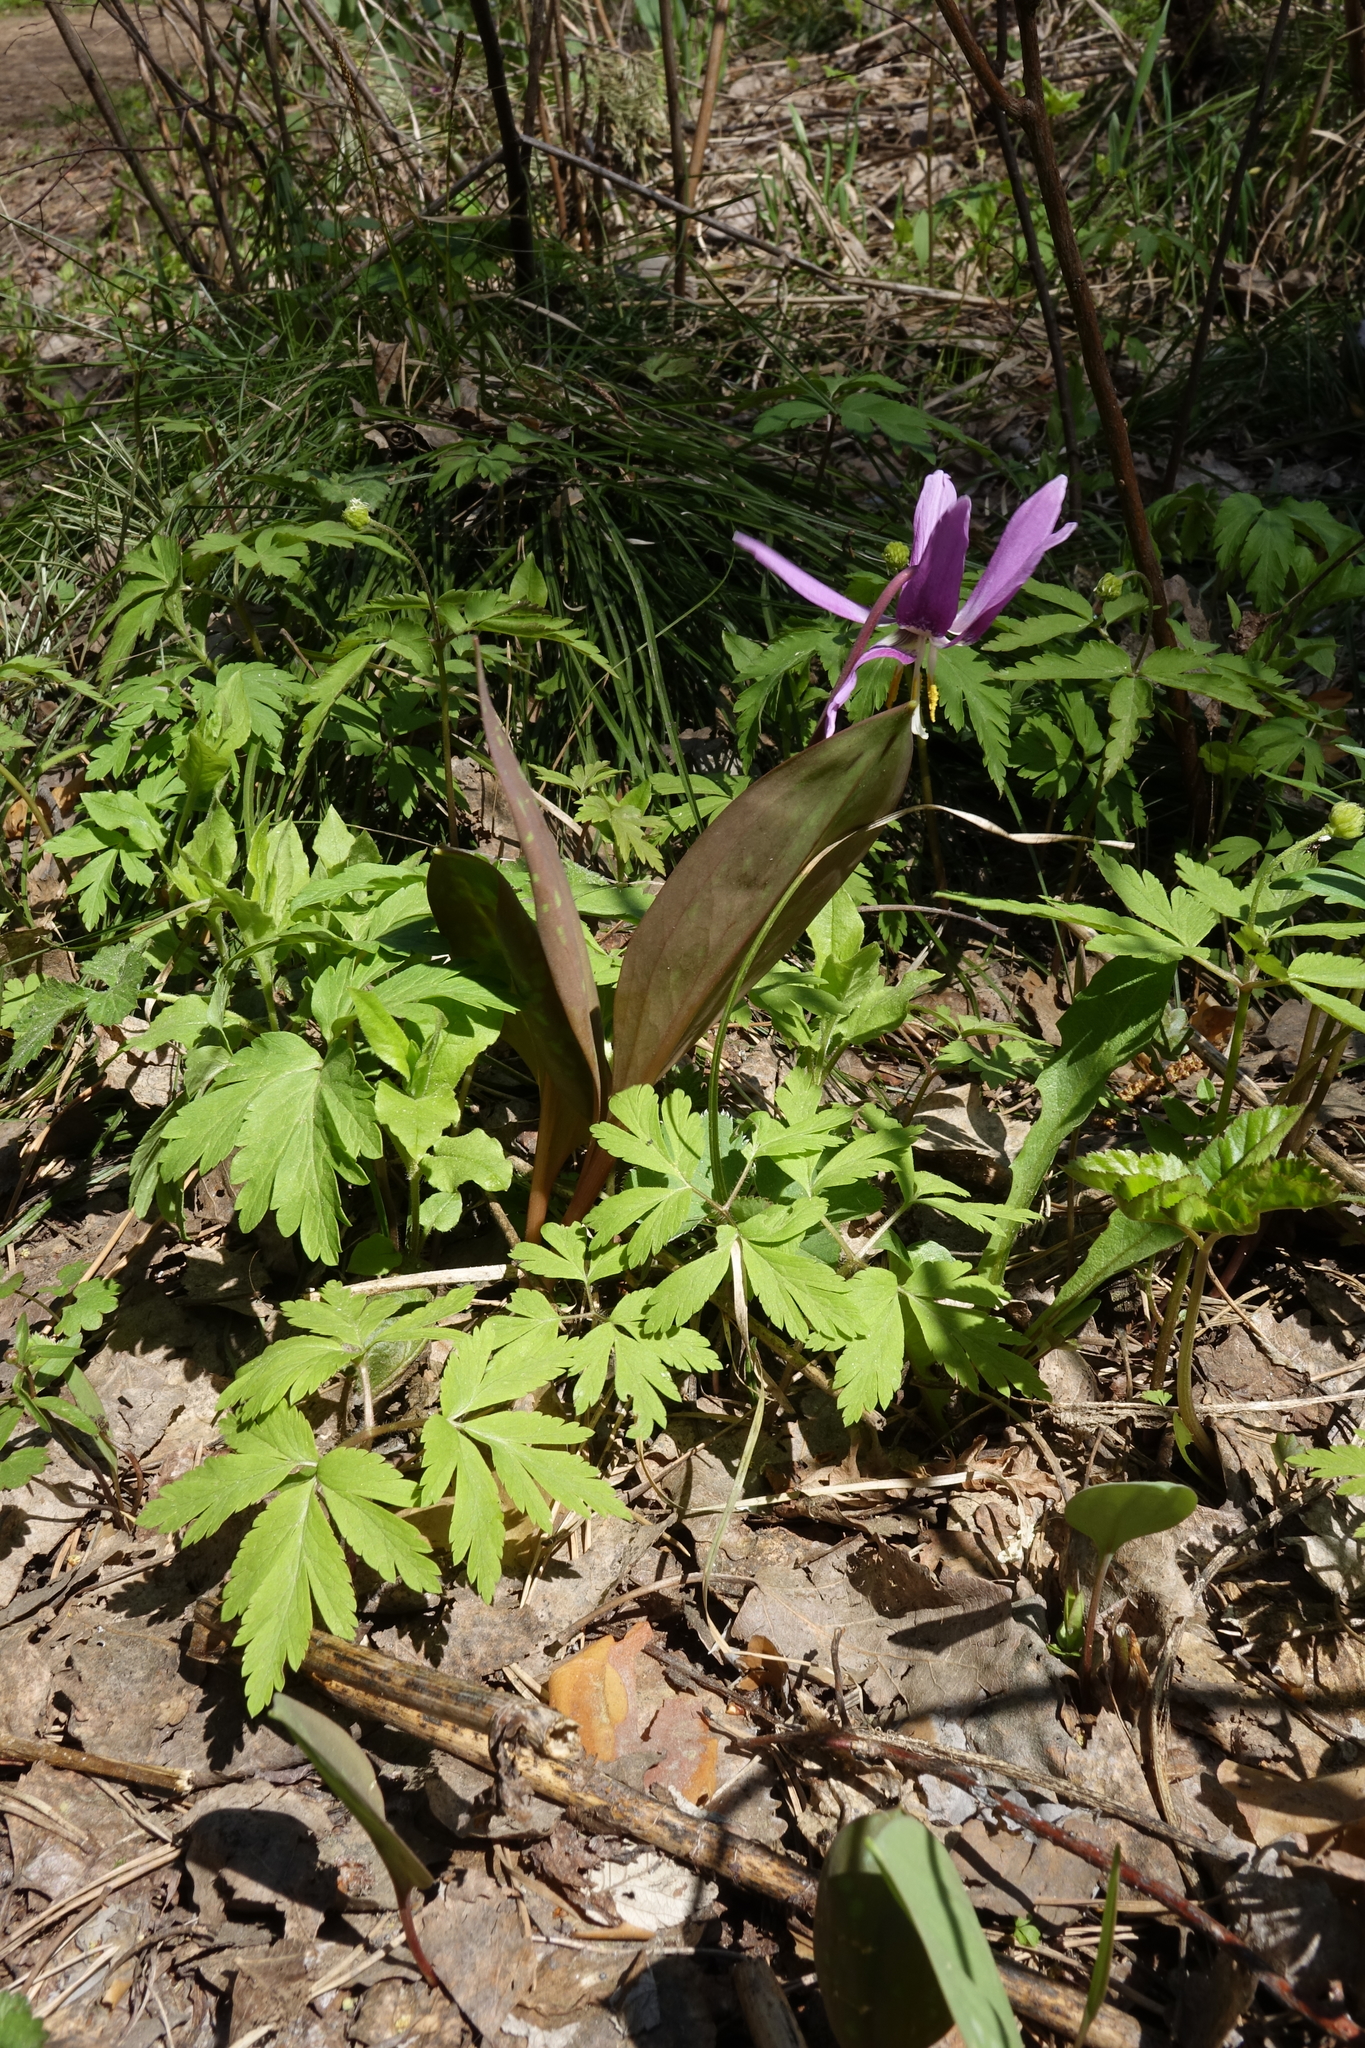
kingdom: Plantae
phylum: Tracheophyta
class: Liliopsida
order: Liliales
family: Liliaceae
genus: Erythronium
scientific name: Erythronium sibiricum
